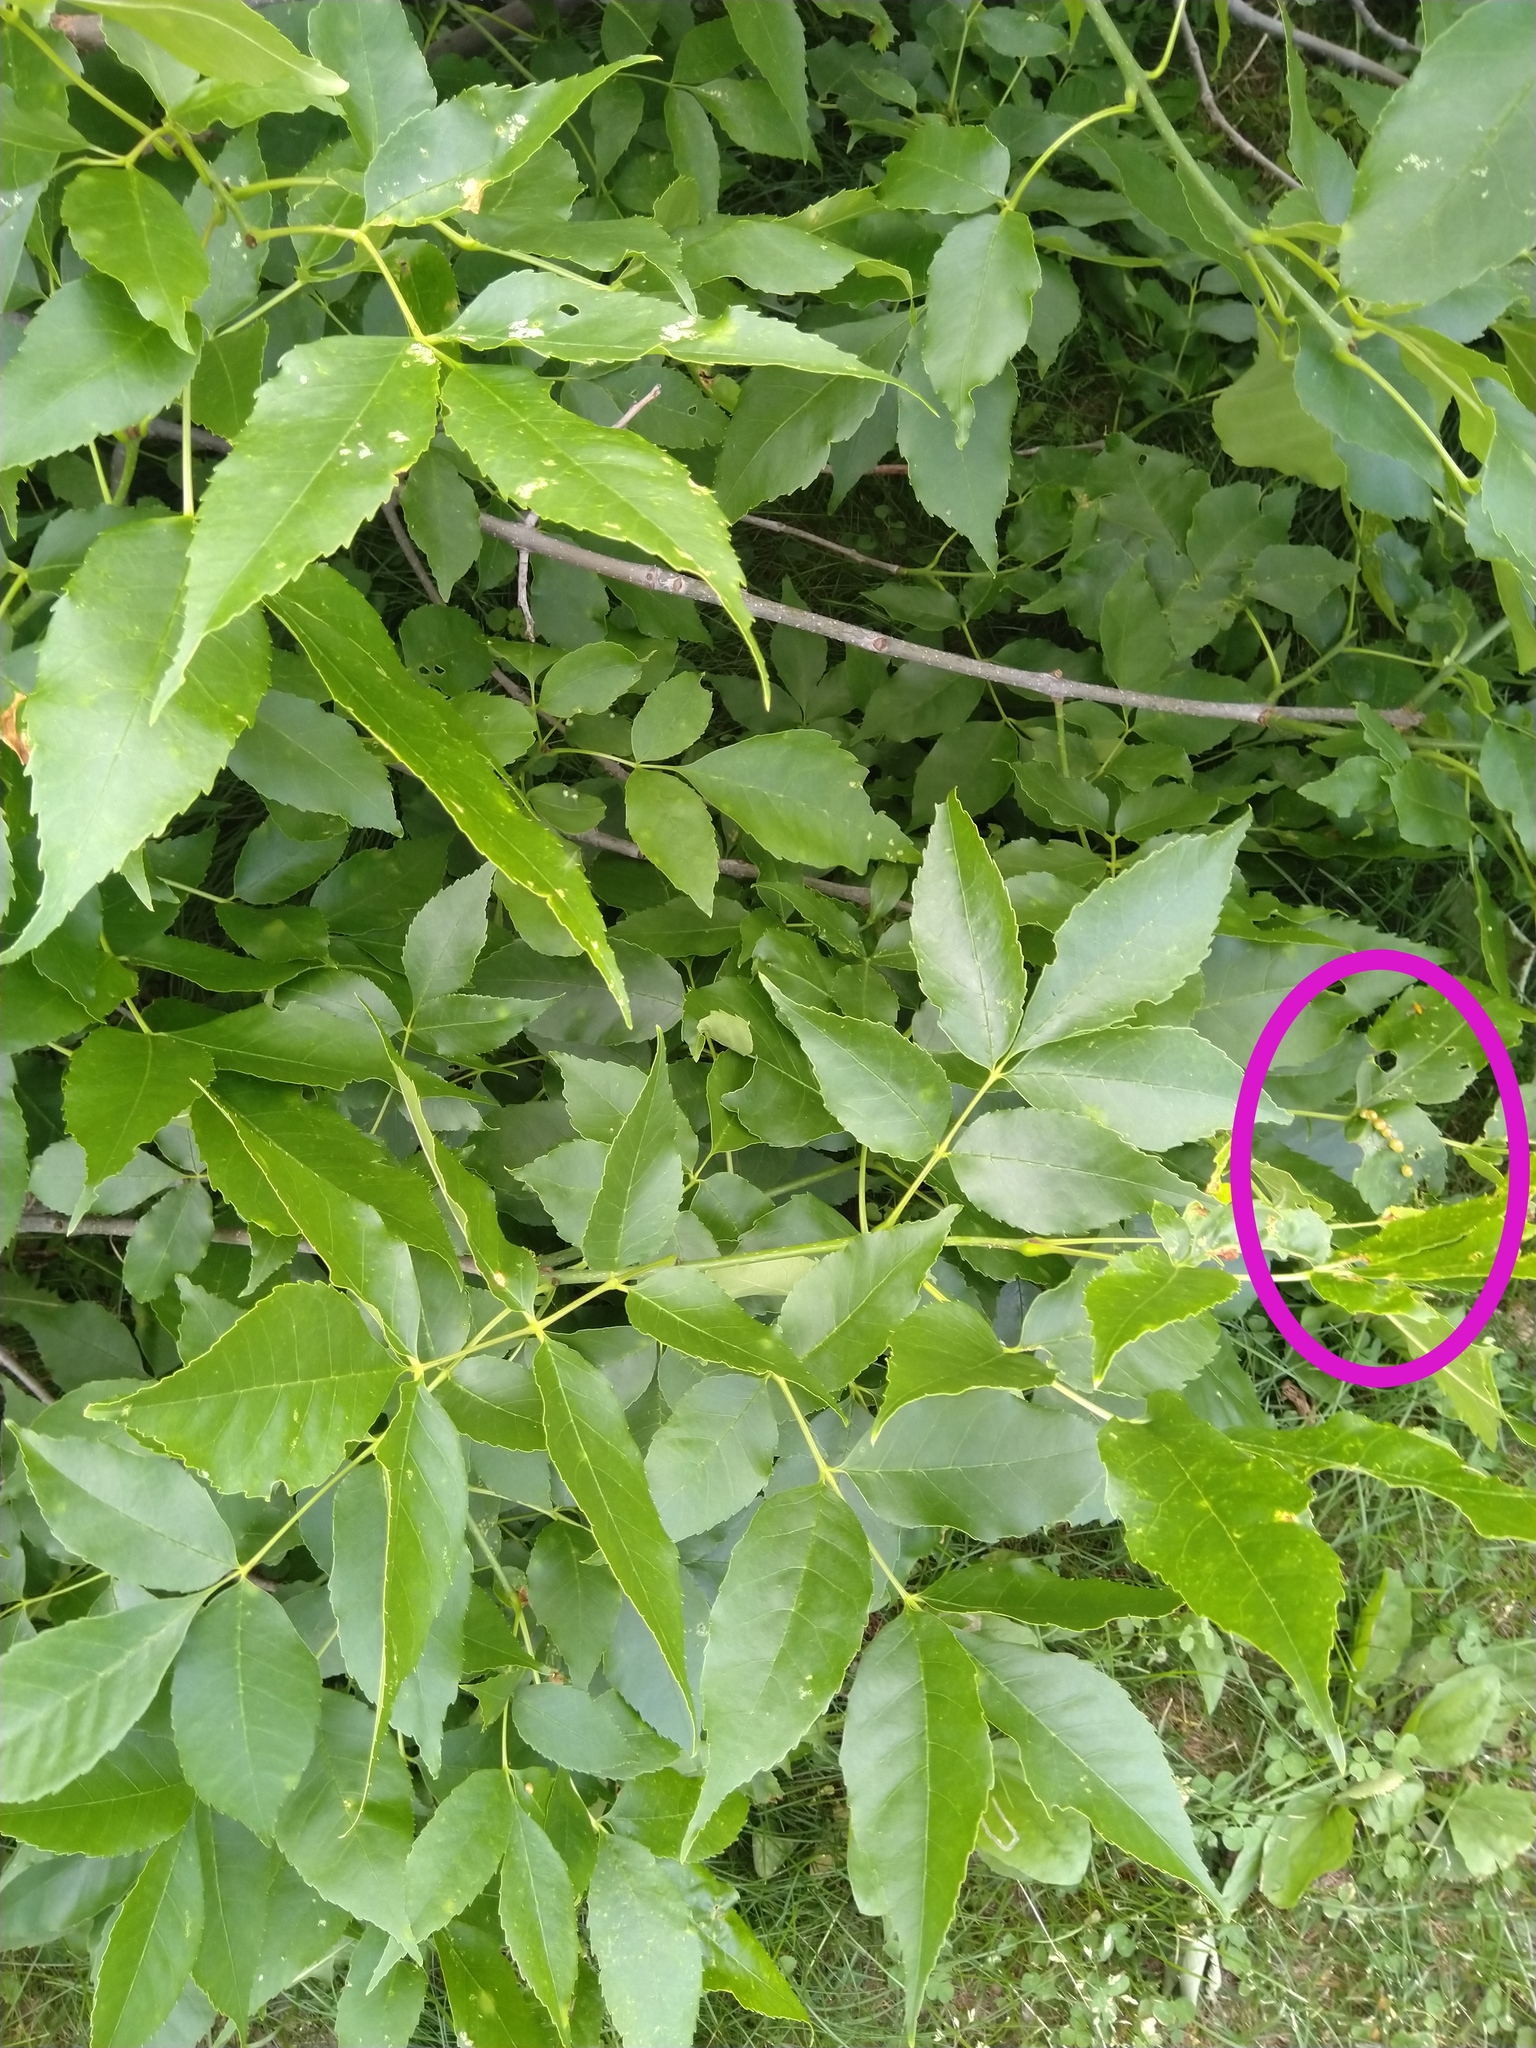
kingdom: Animalia
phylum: Arthropoda
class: Insecta
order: Diptera
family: Cecidomyiidae
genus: Dasineura
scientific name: Dasineura pellex
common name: Ash bullet gall midge
